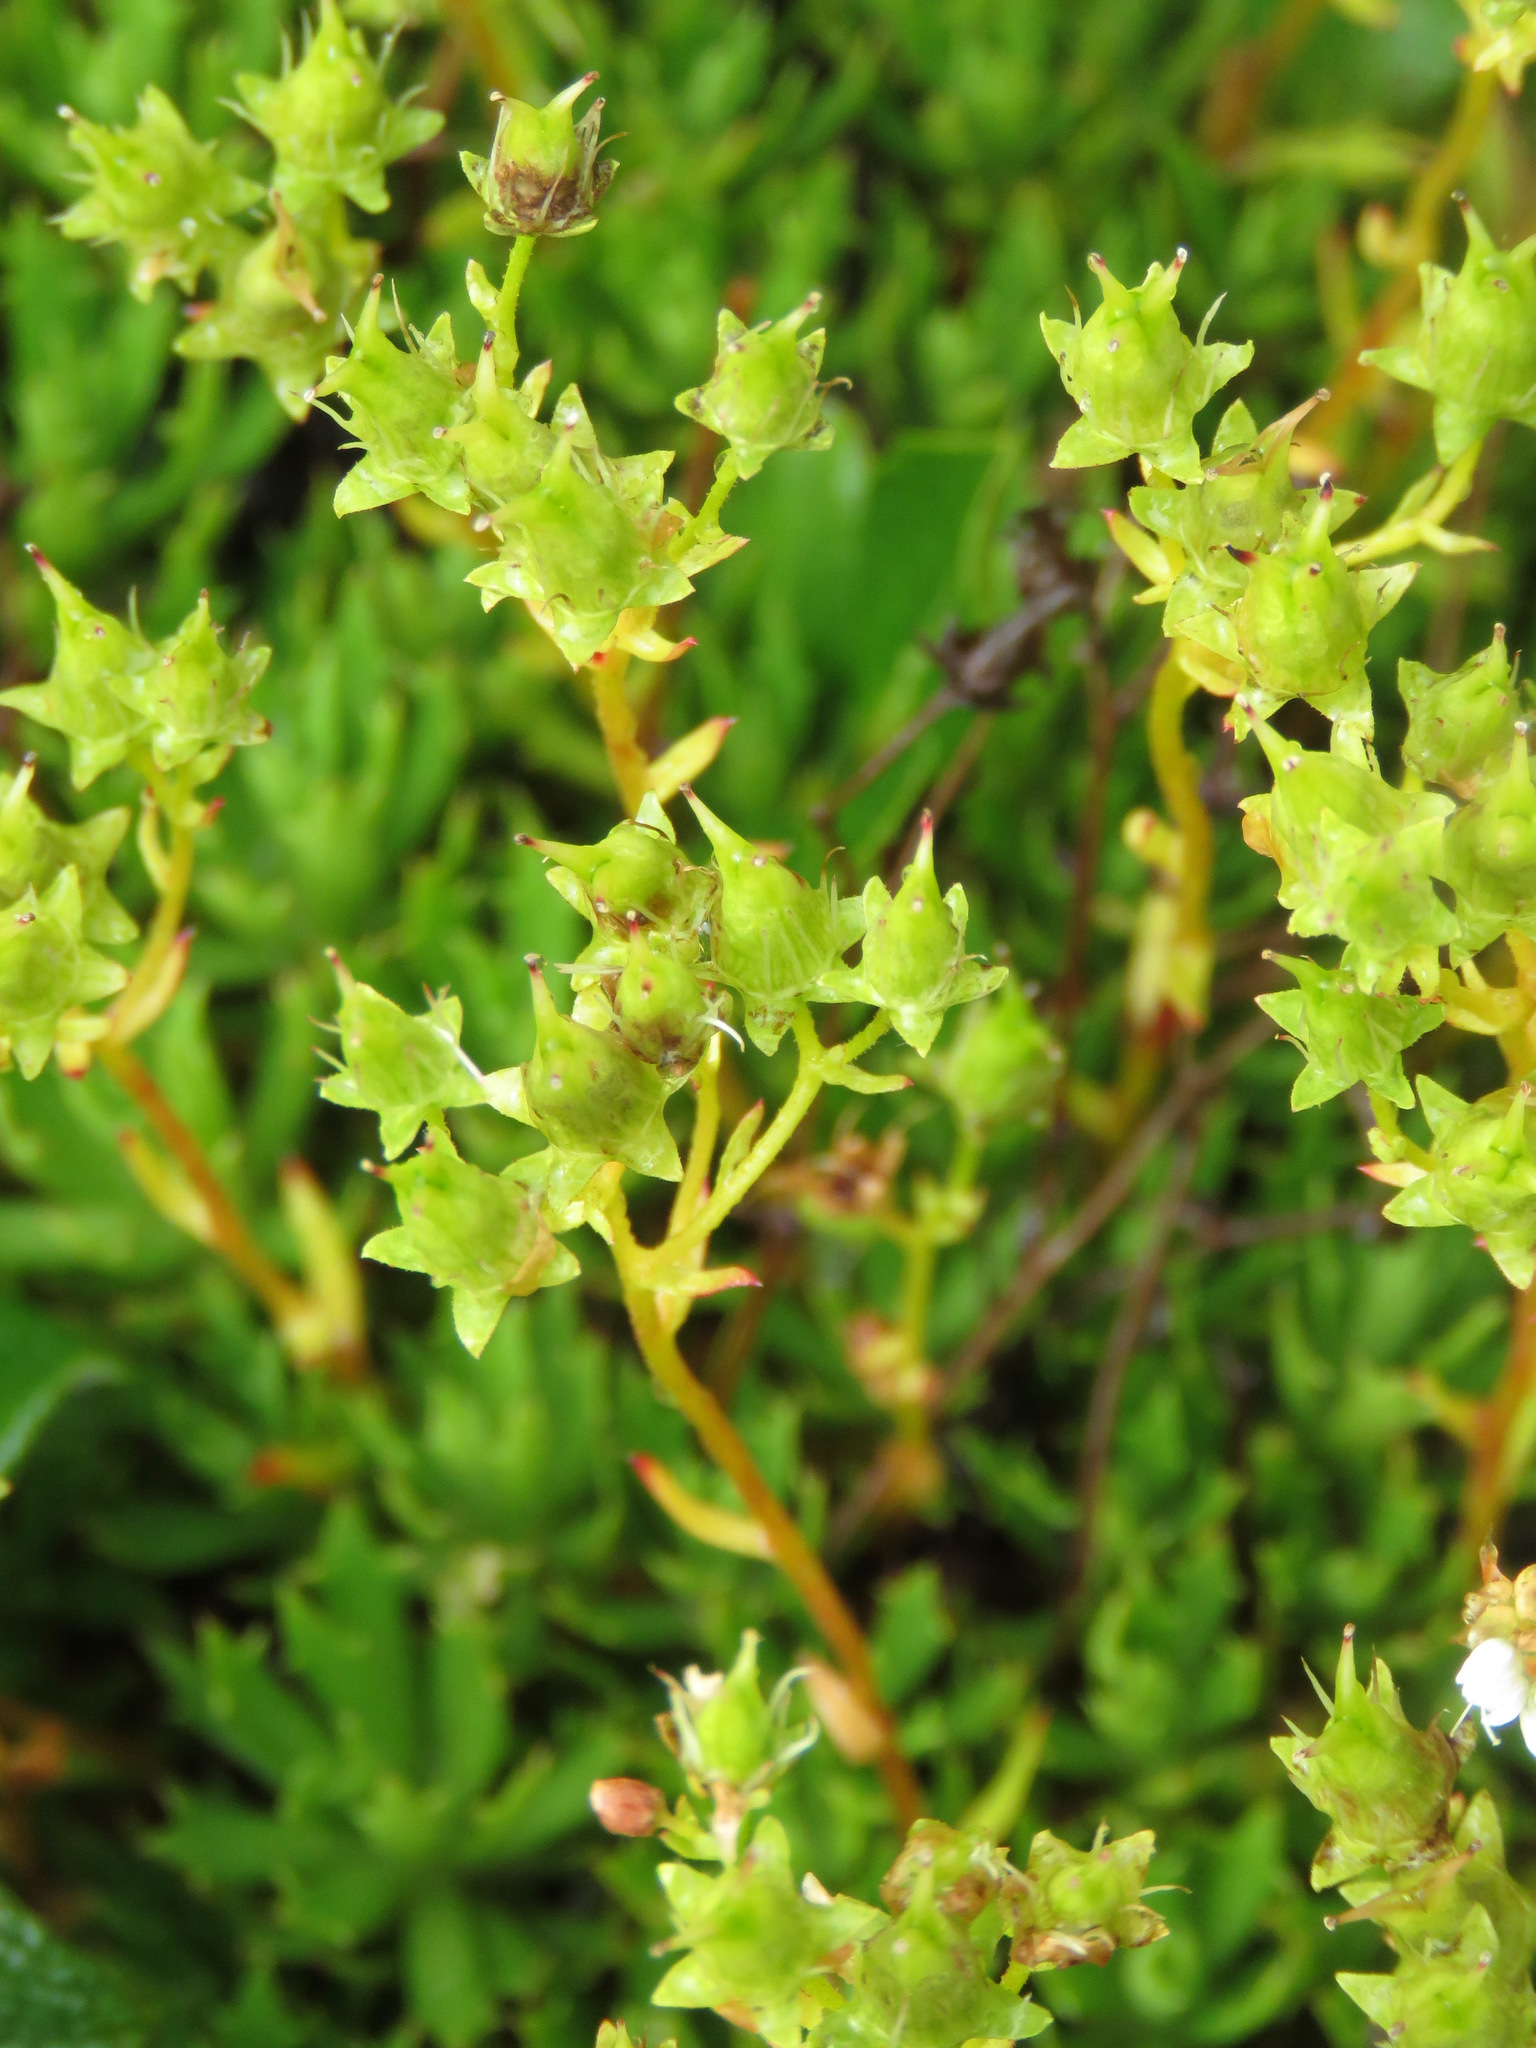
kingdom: Plantae
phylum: Tracheophyta
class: Magnoliopsida
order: Saxifragales
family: Saxifragaceae
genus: Saxifraga
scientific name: Saxifraga tricuspidata
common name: Prickly saxifrage
